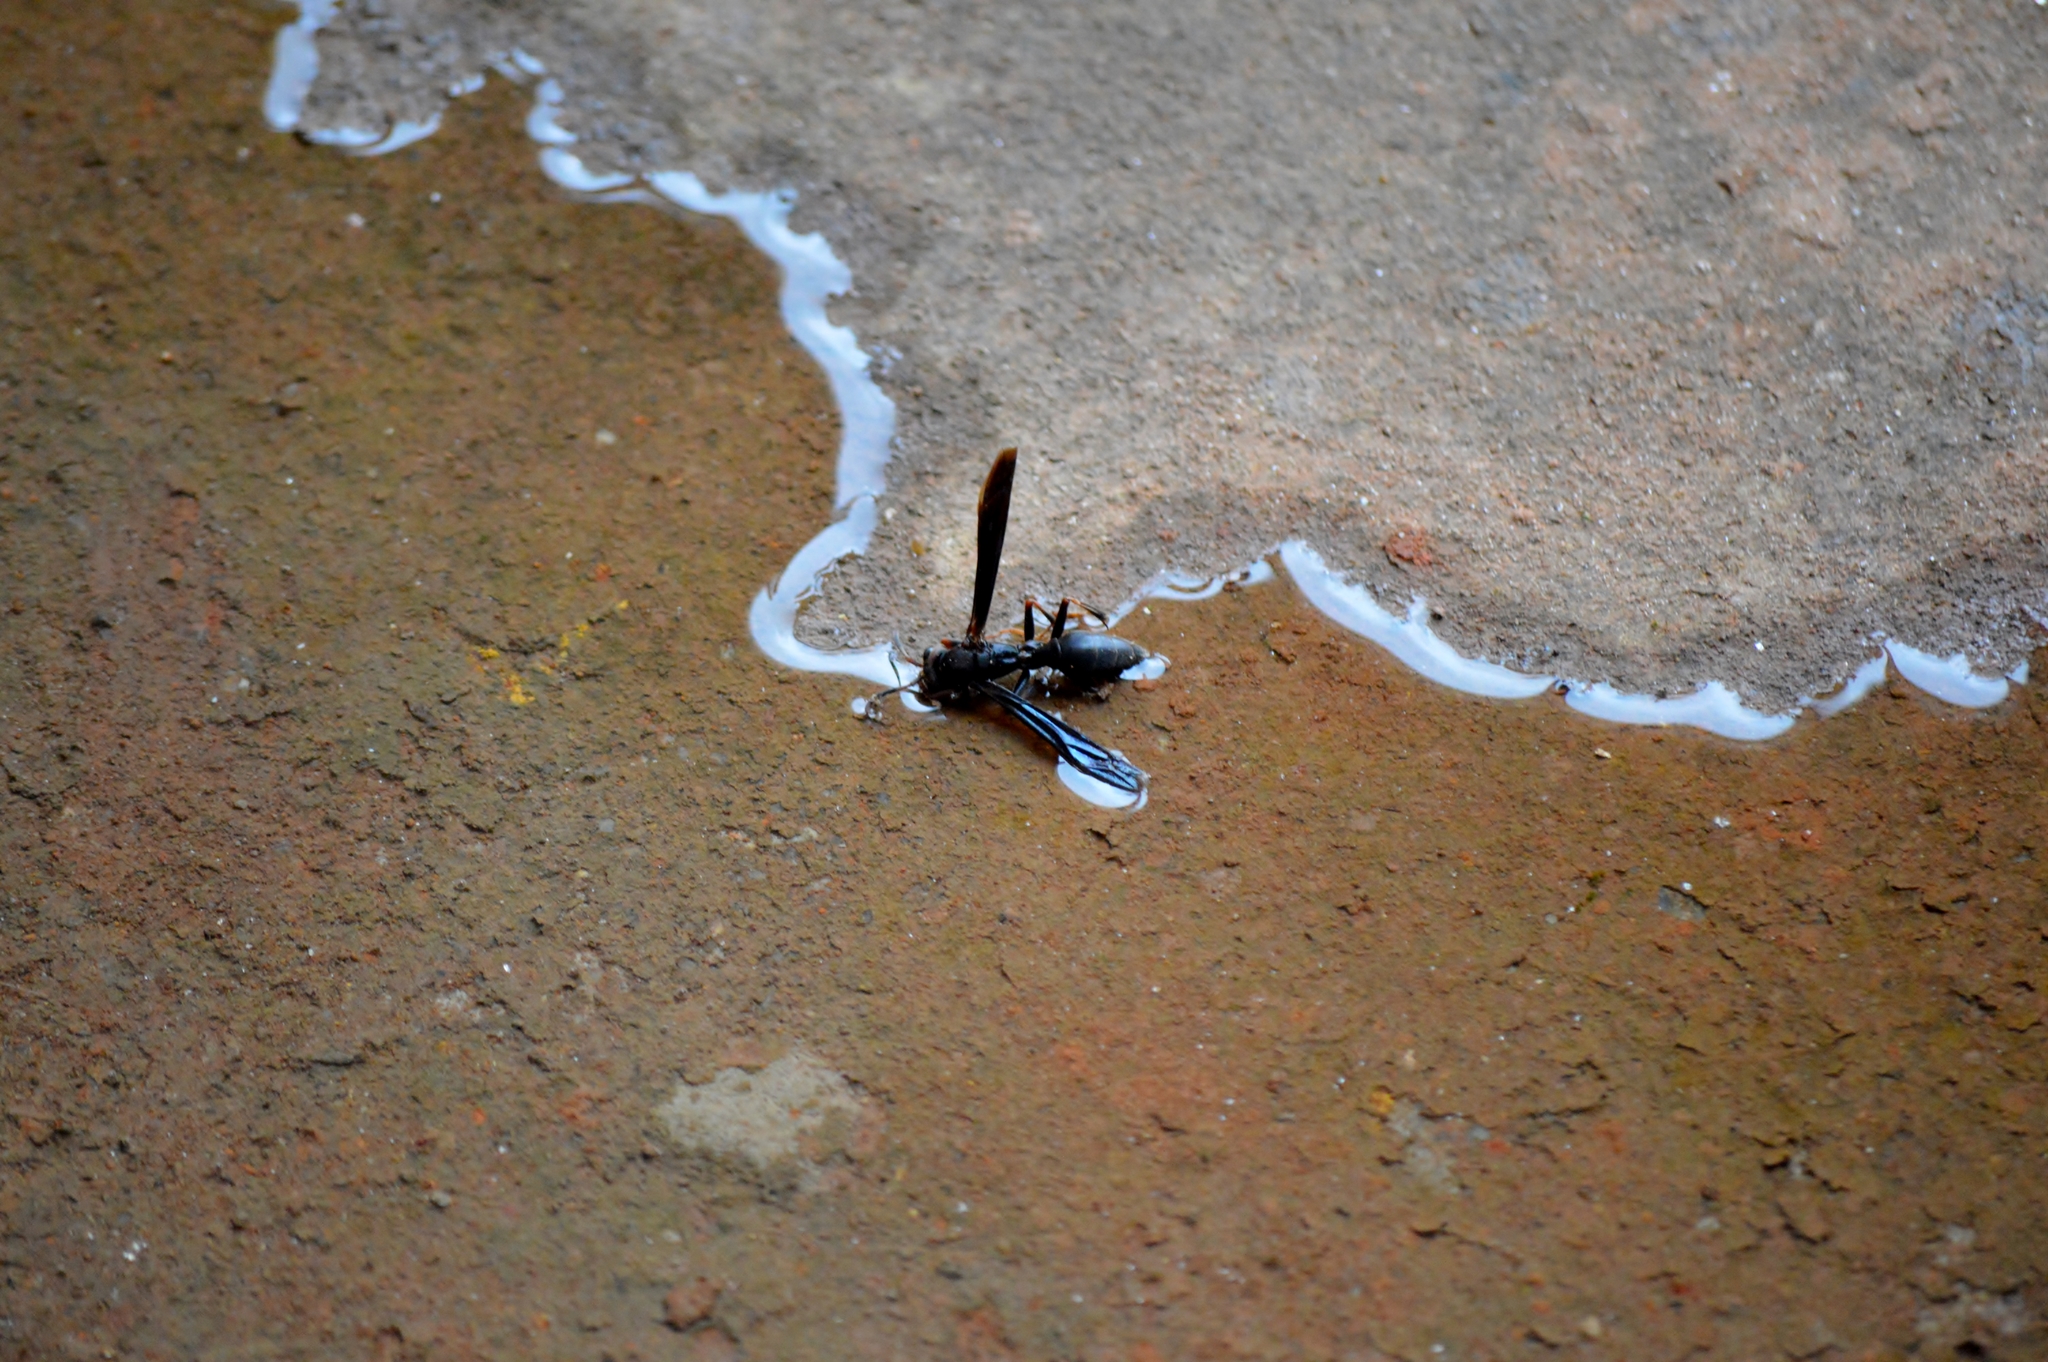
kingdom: Animalia
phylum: Arthropoda
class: Insecta
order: Hymenoptera
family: Eumenidae
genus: Polistes
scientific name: Polistes satan
